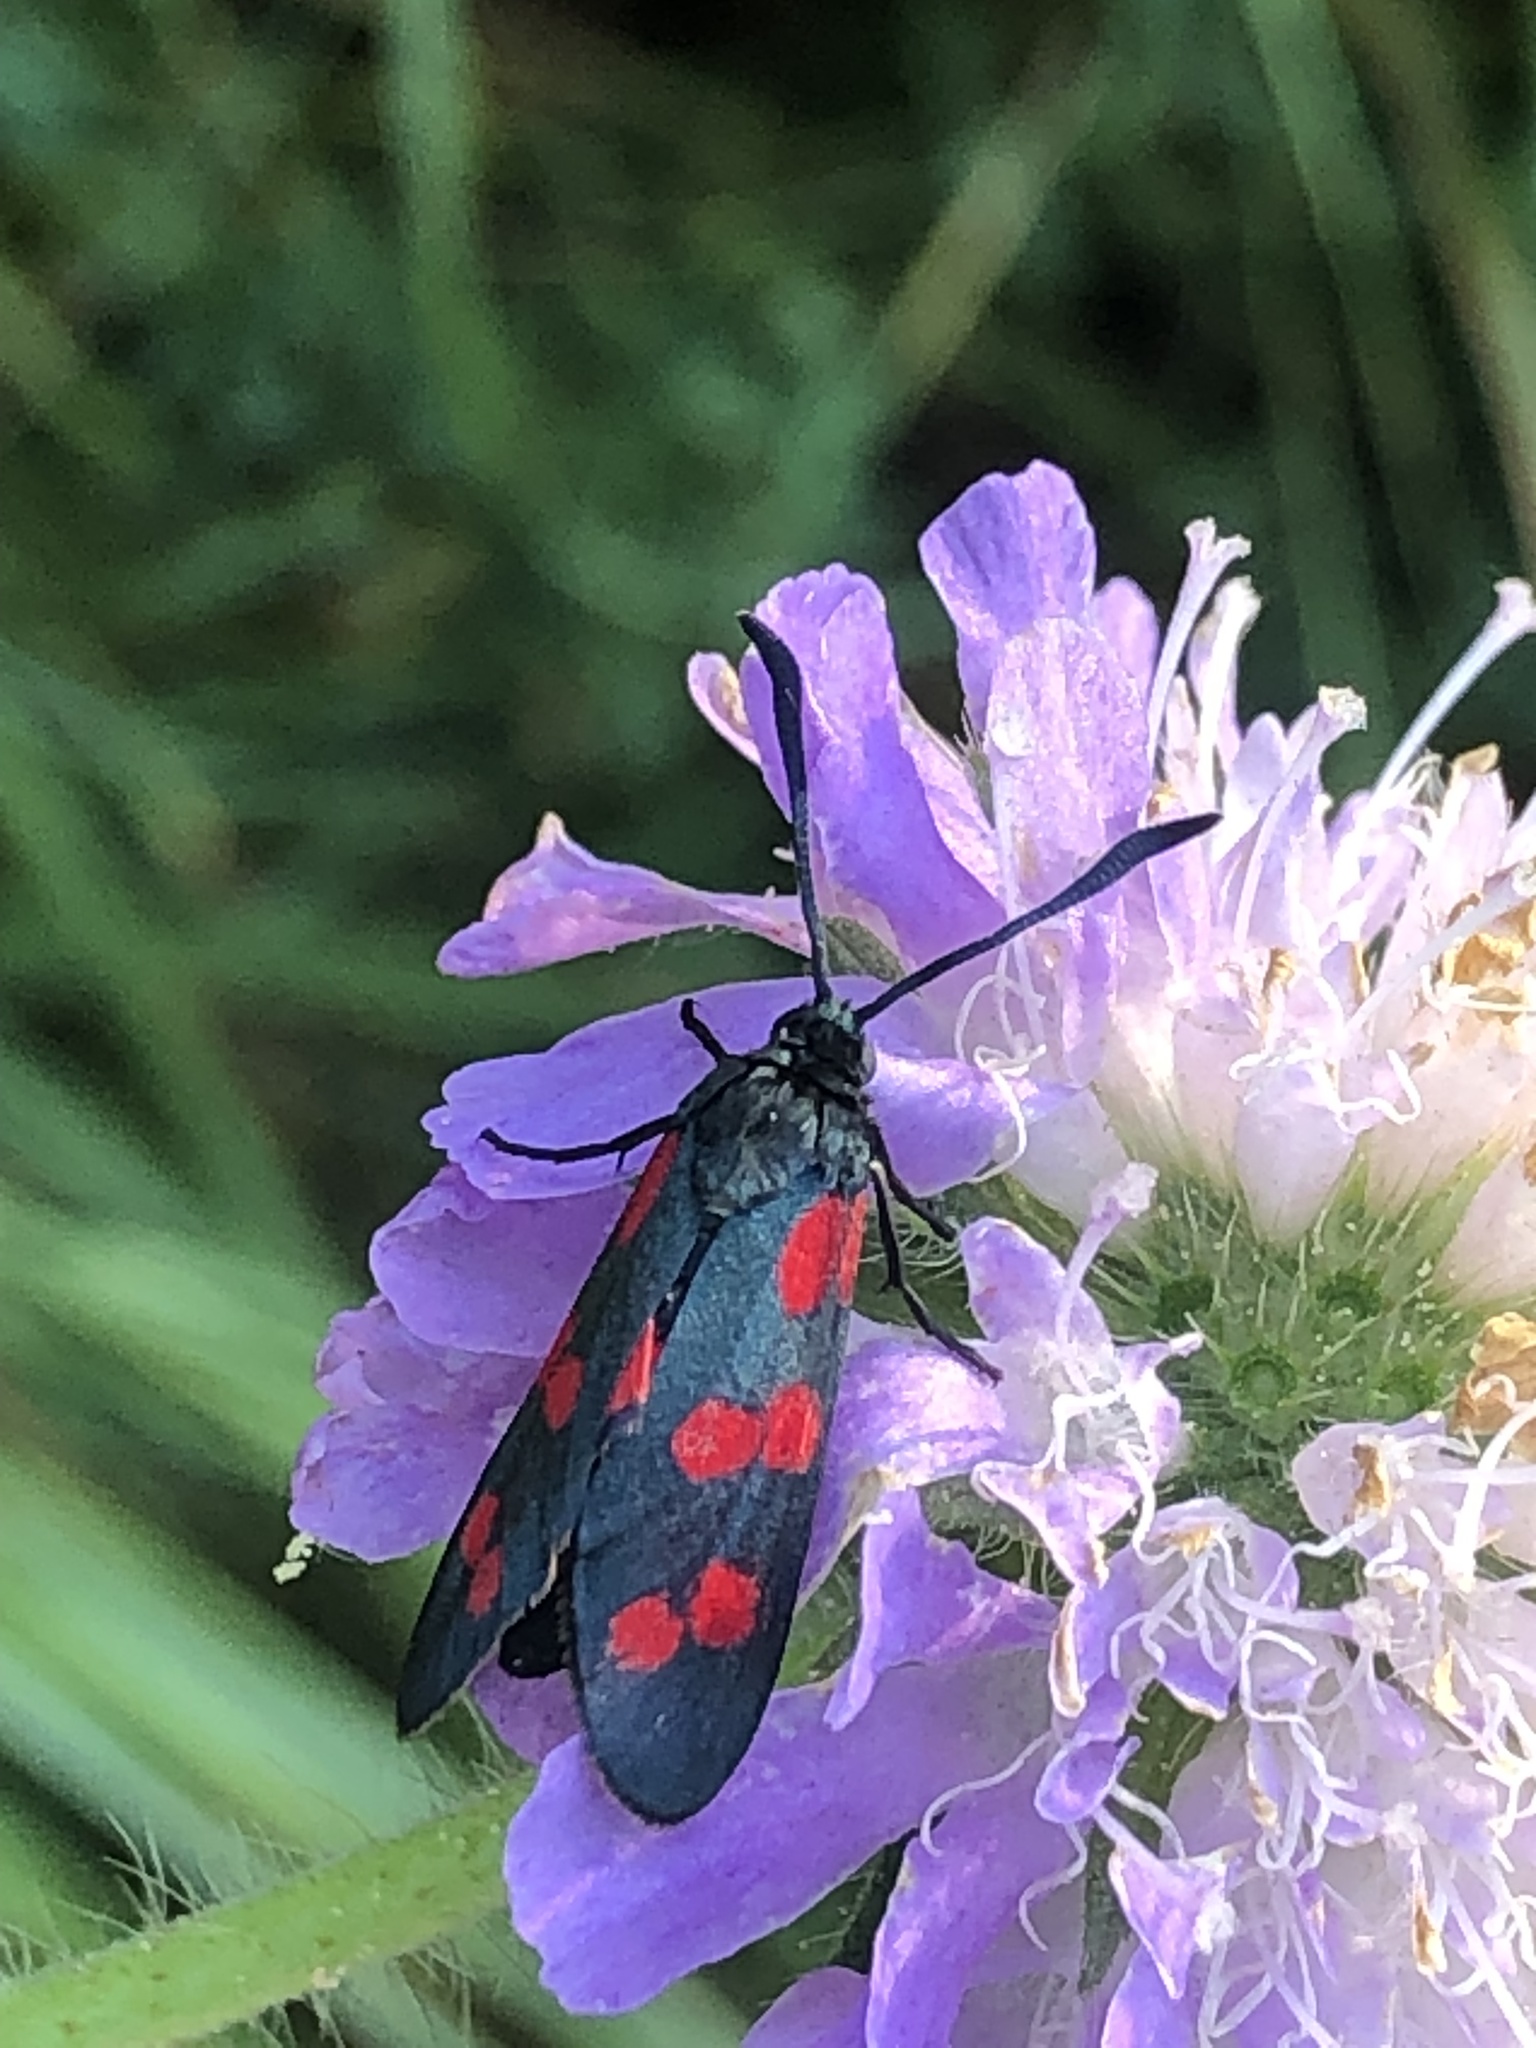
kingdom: Animalia
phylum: Arthropoda
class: Insecta
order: Lepidoptera
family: Zygaenidae
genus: Zygaena
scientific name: Zygaena filipendulae
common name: Six-spot burnet
